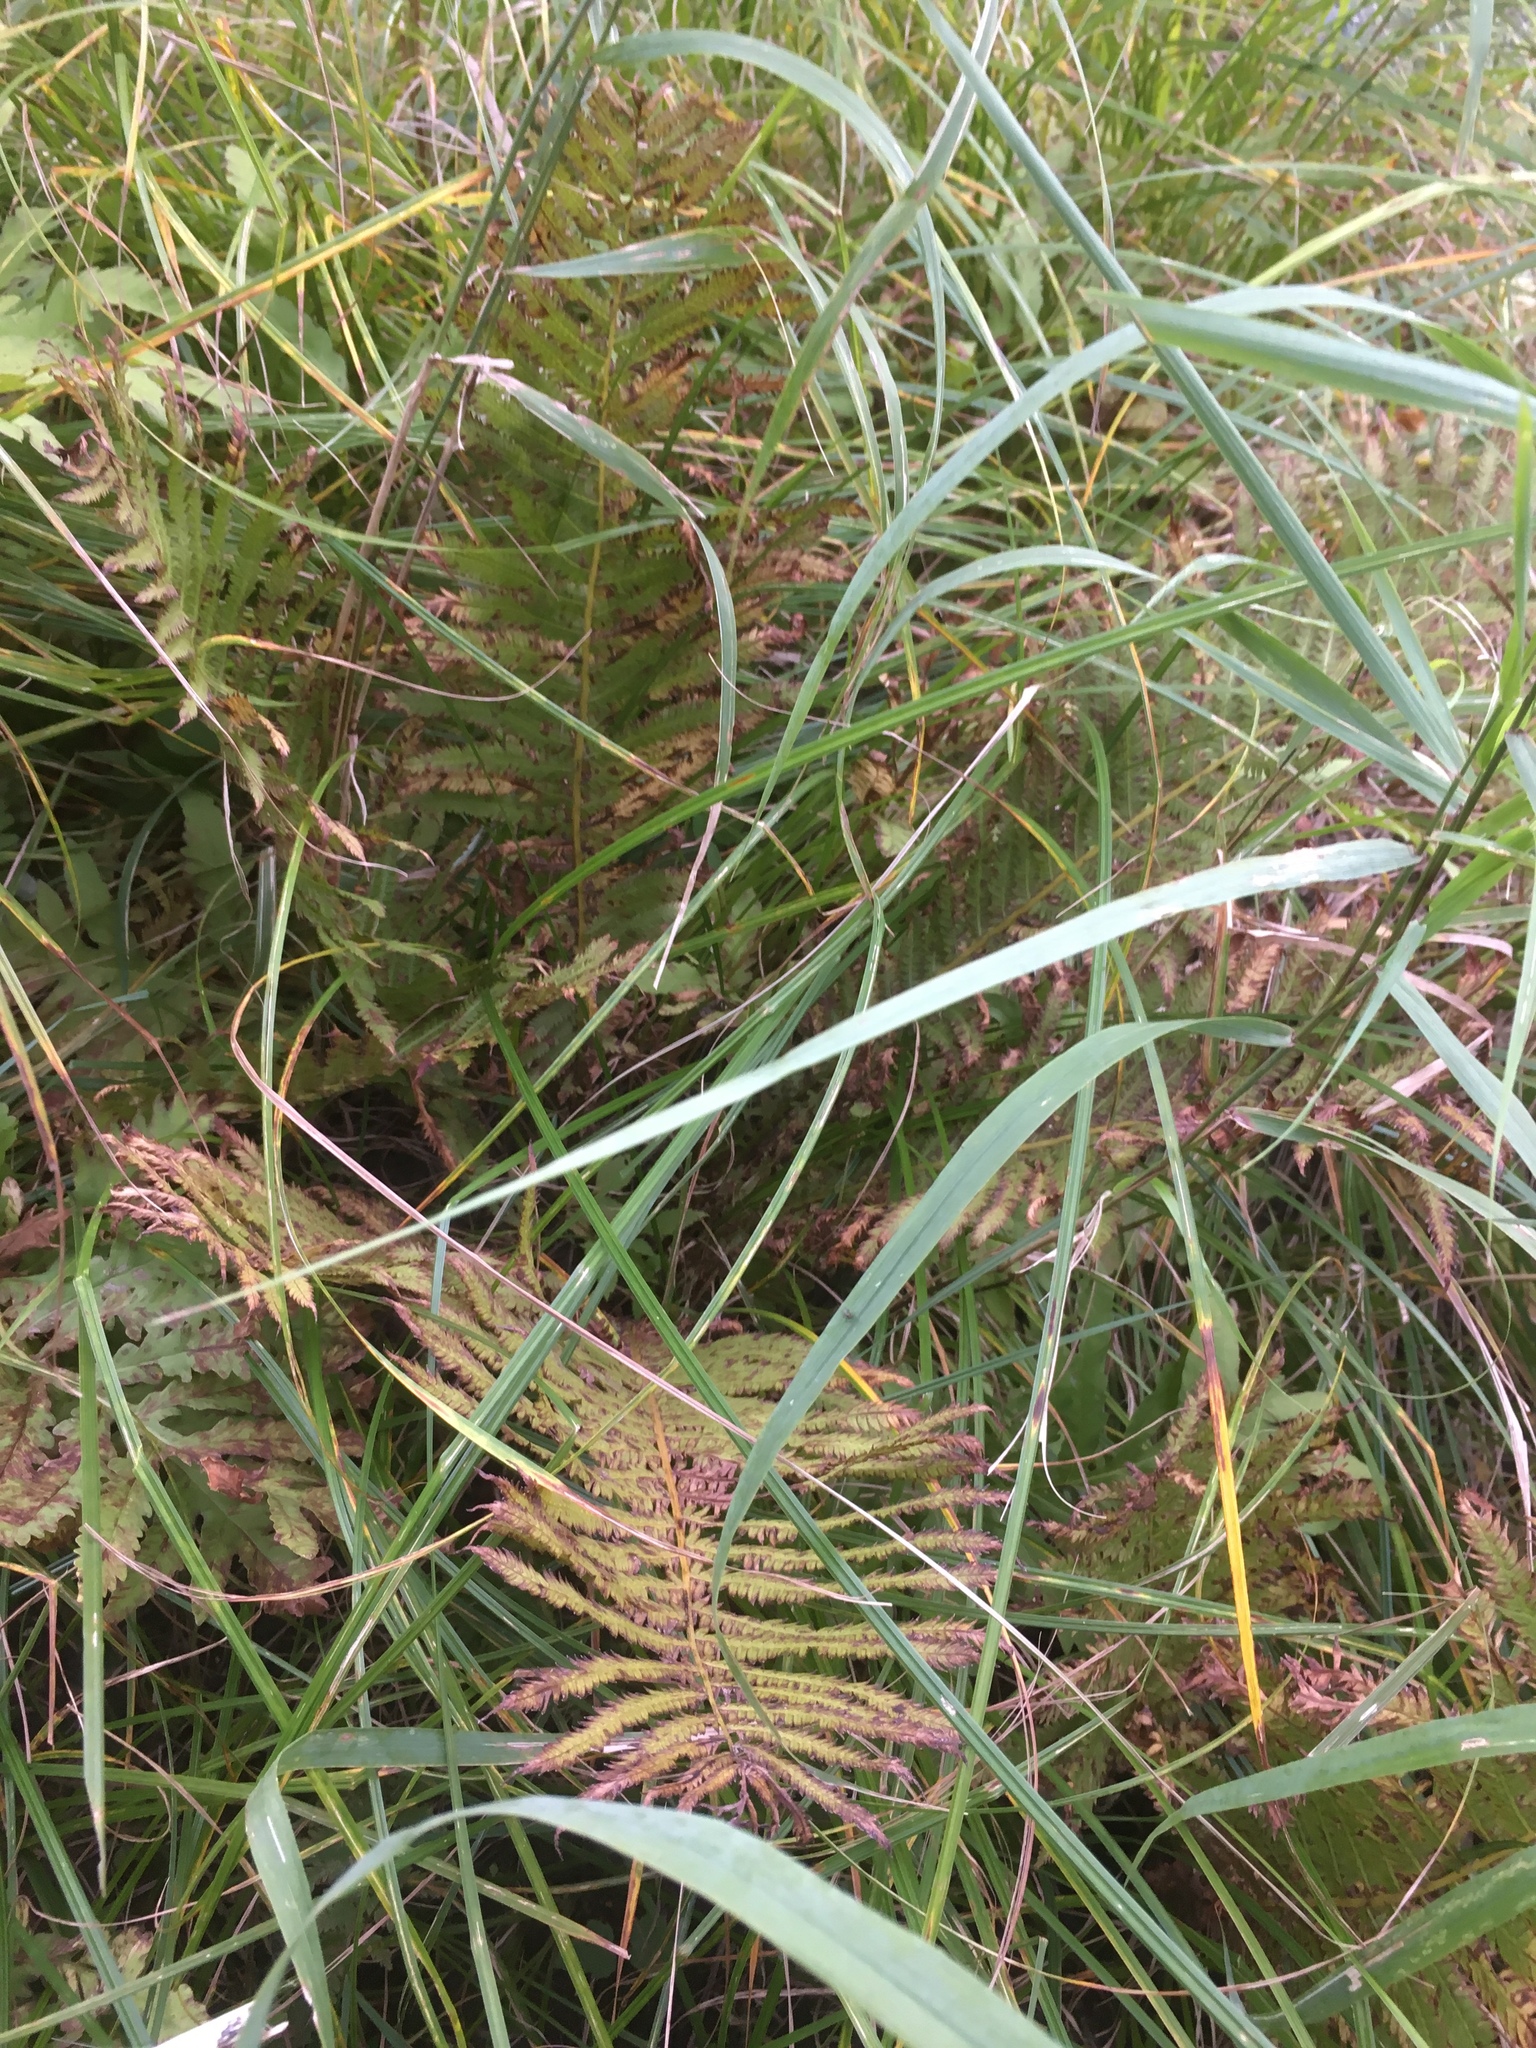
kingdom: Plantae
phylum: Tracheophyta
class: Polypodiopsida
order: Polypodiales
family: Onocleaceae
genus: Matteuccia
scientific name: Matteuccia struthiopteris
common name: Ostrich fern
